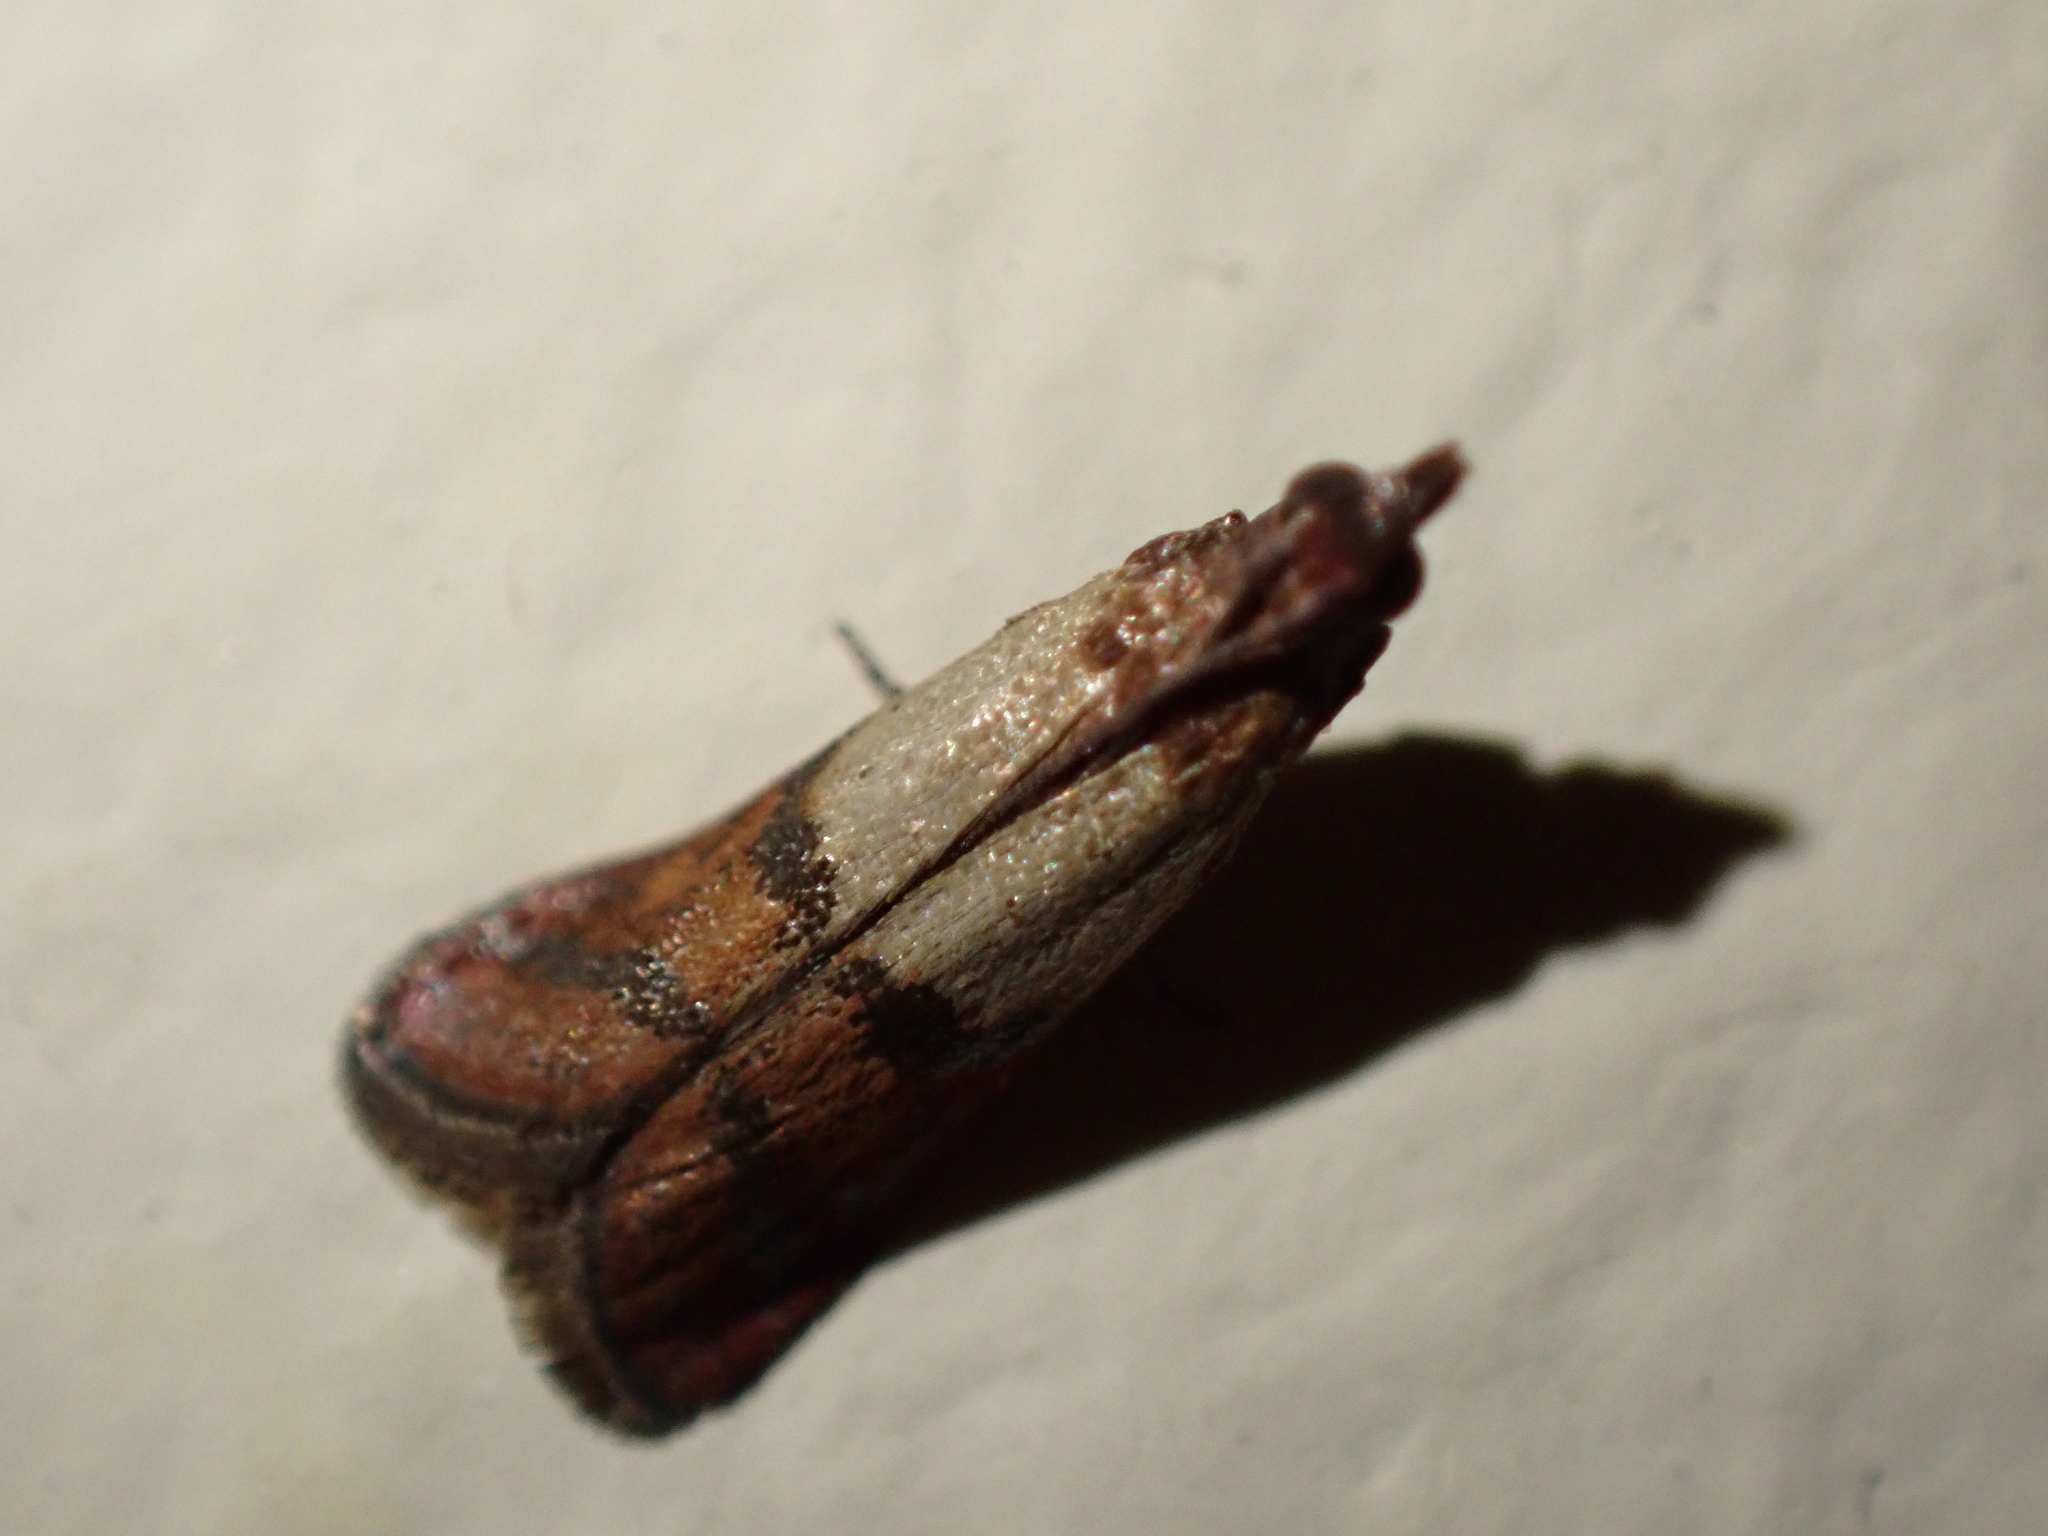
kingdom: Animalia
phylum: Arthropoda
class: Insecta
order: Lepidoptera
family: Pyralidae
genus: Plodia
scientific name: Plodia interpunctella
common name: Indian meal moth
